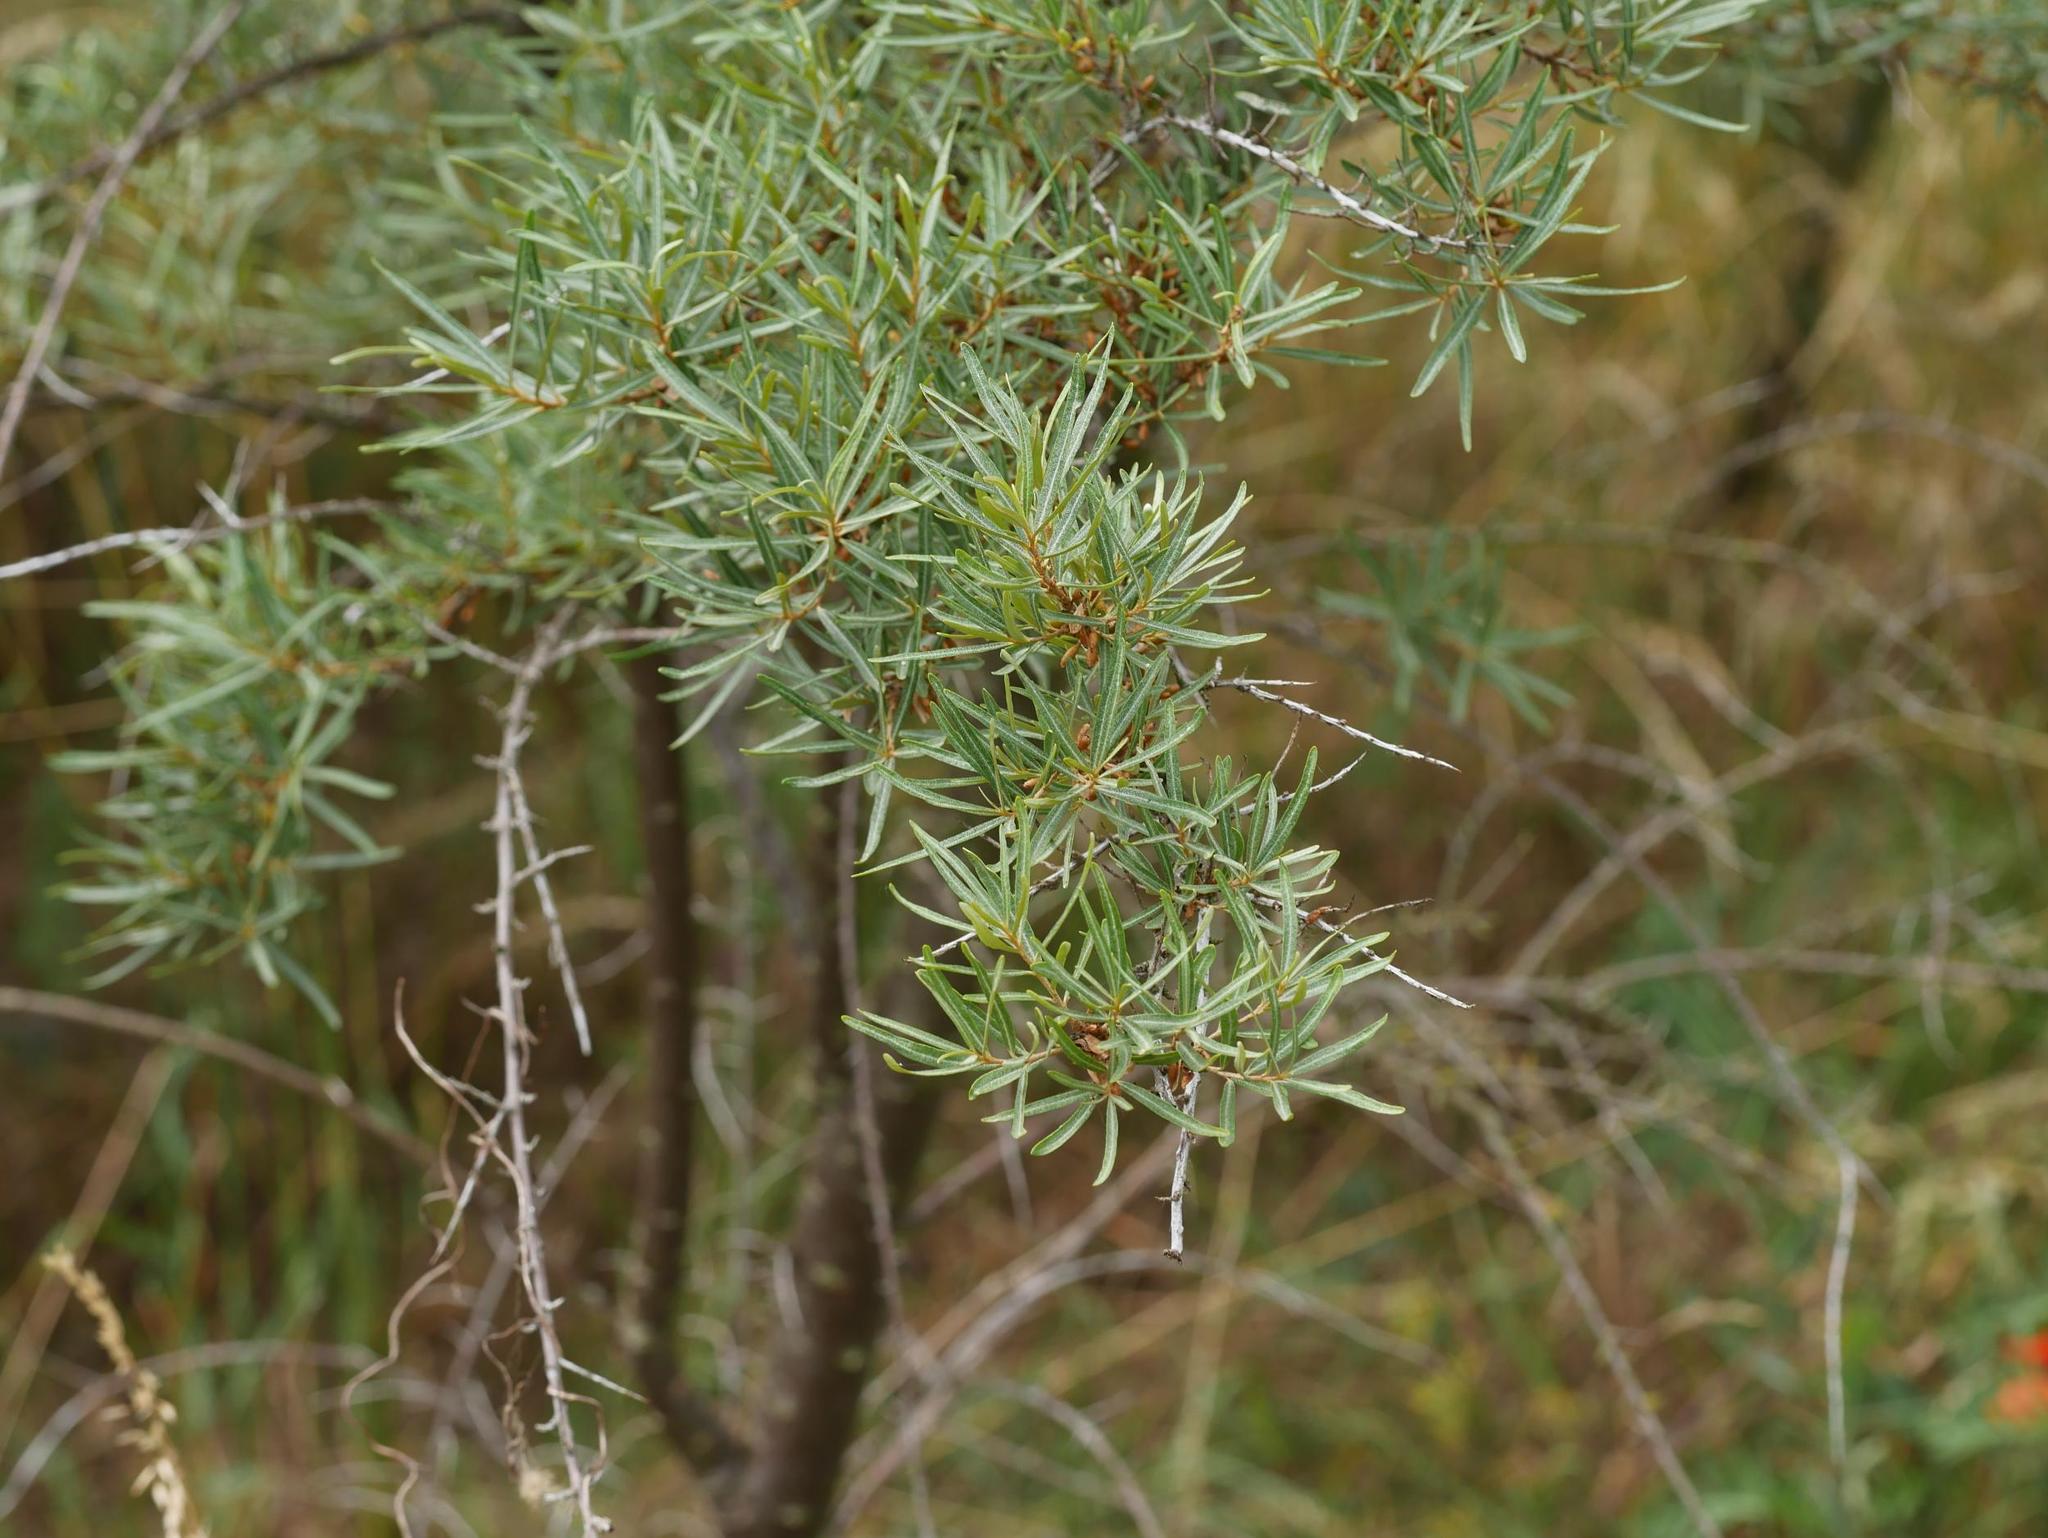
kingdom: Plantae
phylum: Tracheophyta
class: Magnoliopsida
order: Rosales
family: Elaeagnaceae
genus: Hippophae
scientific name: Hippophae rhamnoides
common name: Sea-buckthorn
